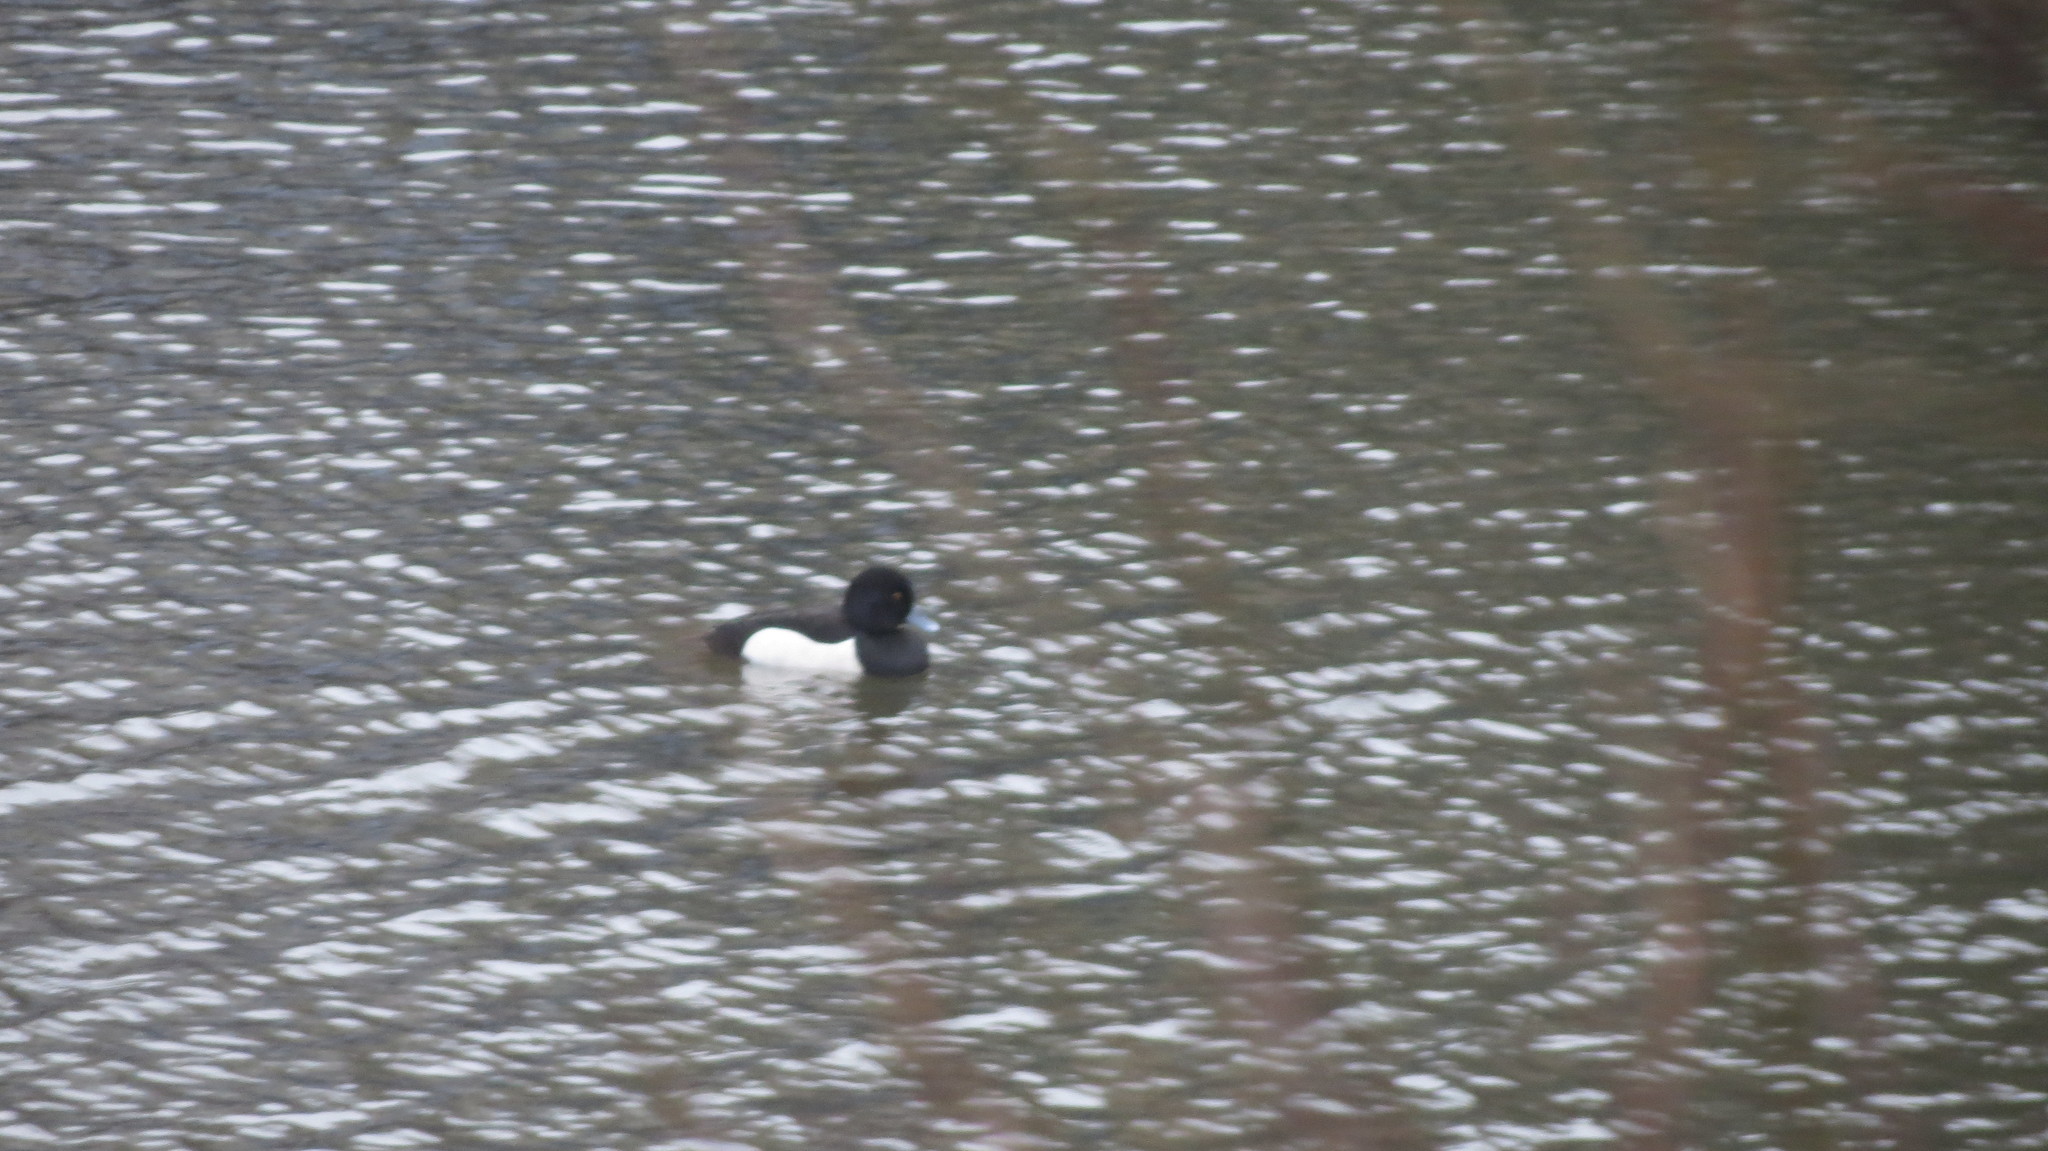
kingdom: Animalia
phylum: Chordata
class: Aves
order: Anseriformes
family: Anatidae
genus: Aythya
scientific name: Aythya fuligula
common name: Tufted duck
